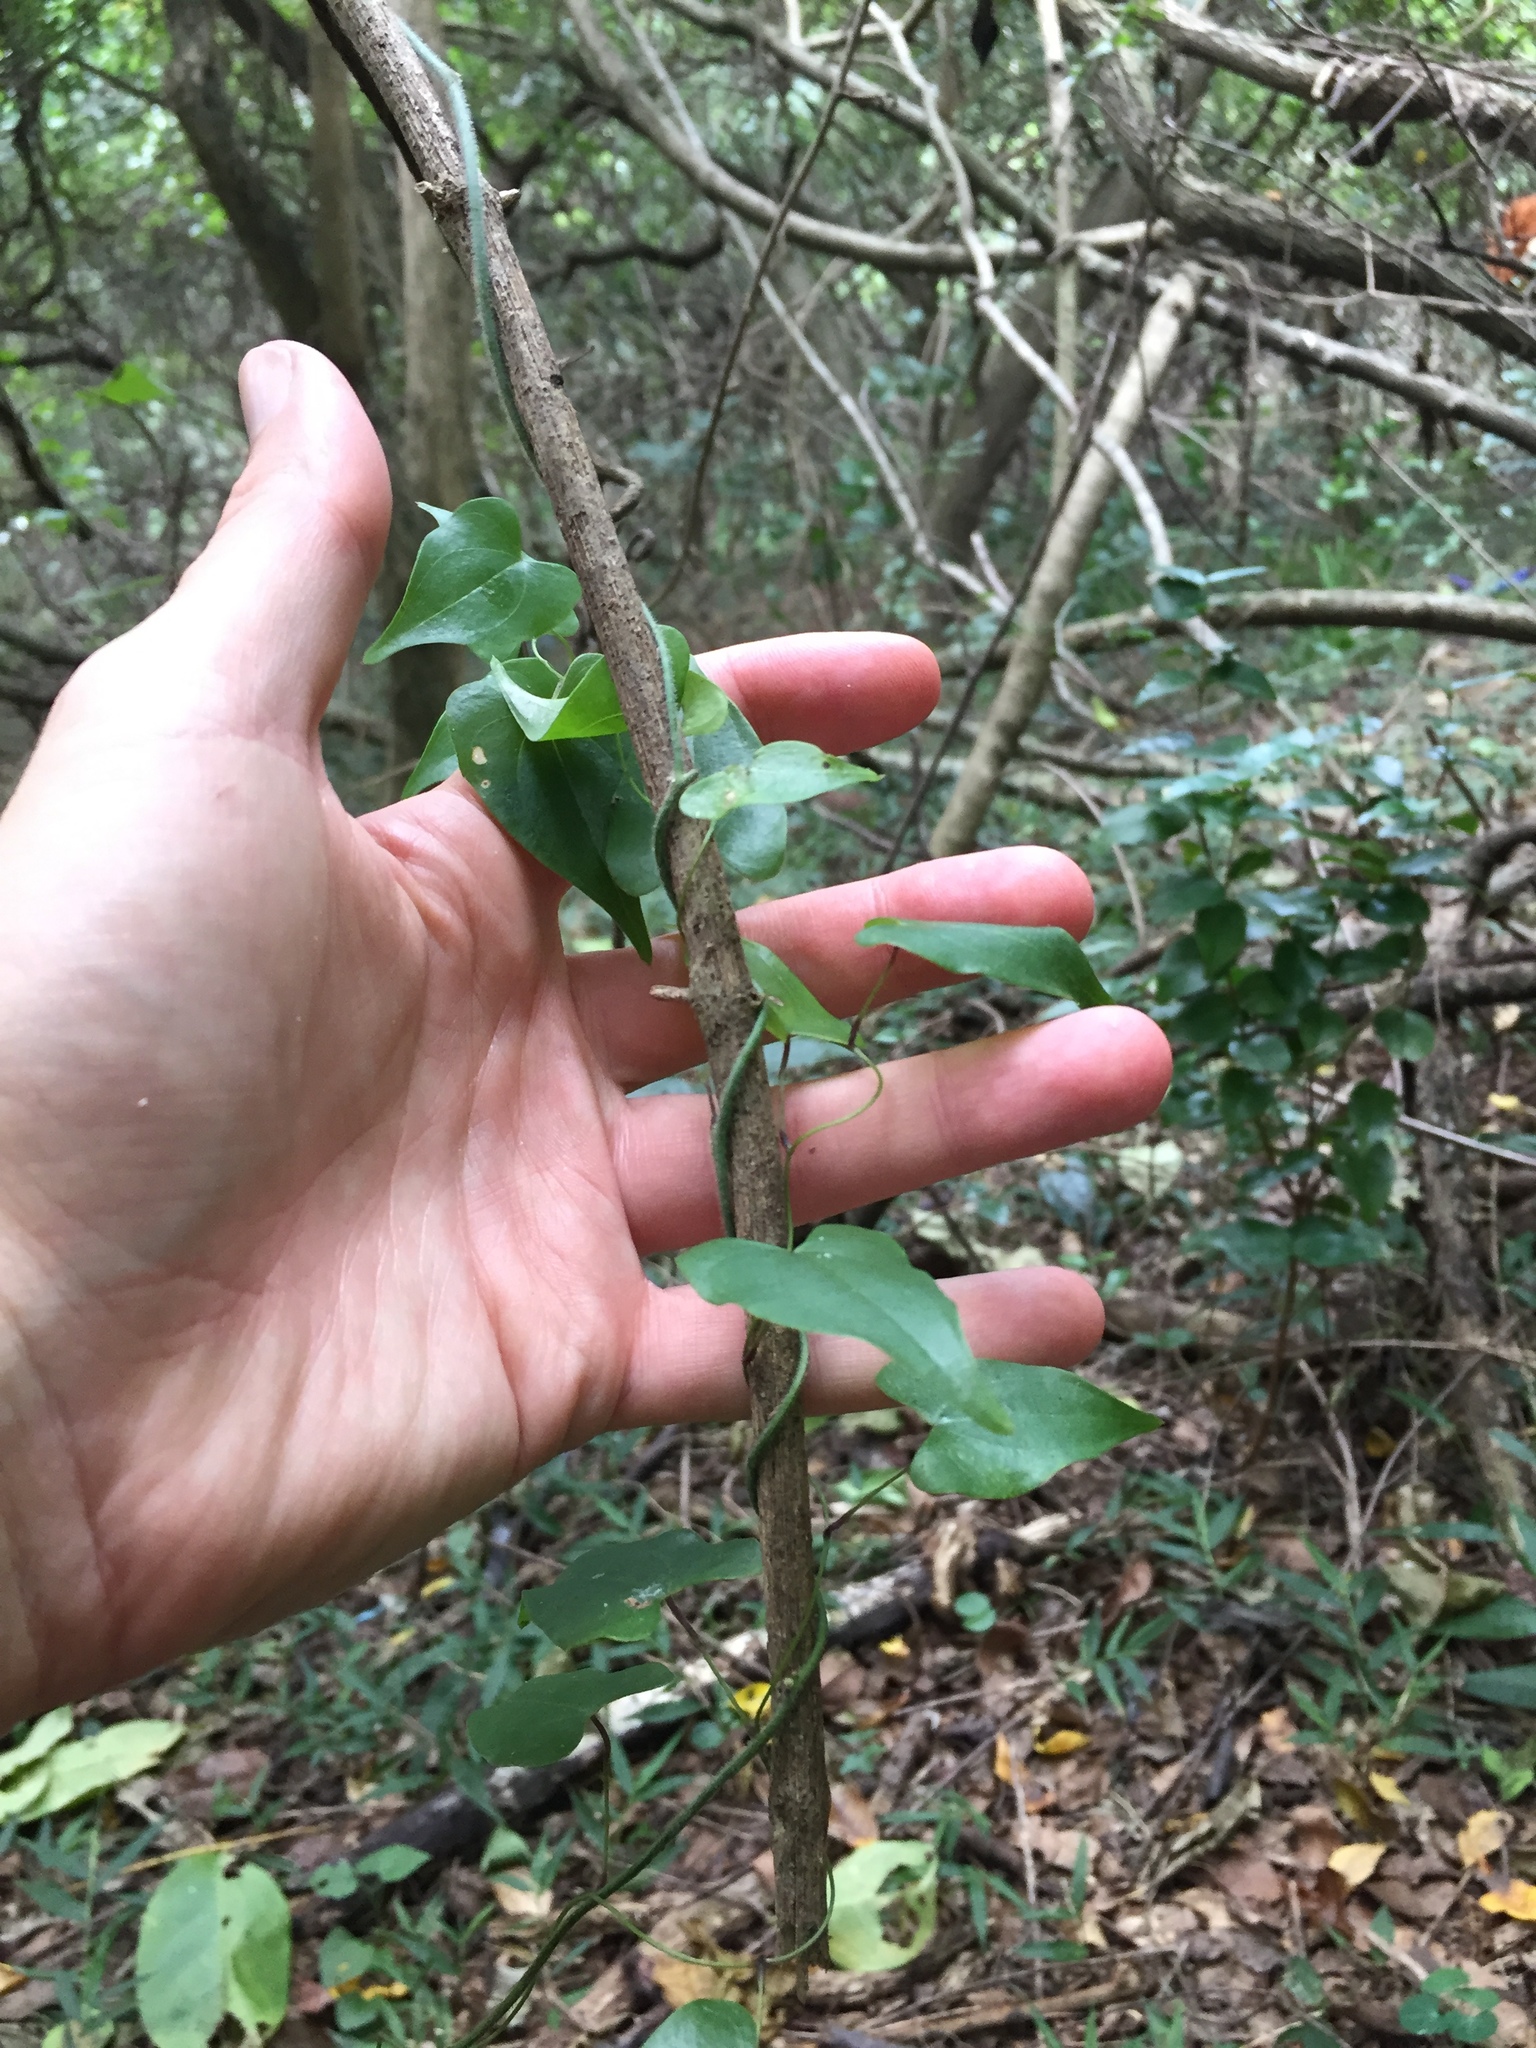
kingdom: Plantae
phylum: Tracheophyta
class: Liliopsida
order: Dioscoreales
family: Dioscoreaceae
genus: Dioscorea
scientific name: Dioscorea sylvatica
